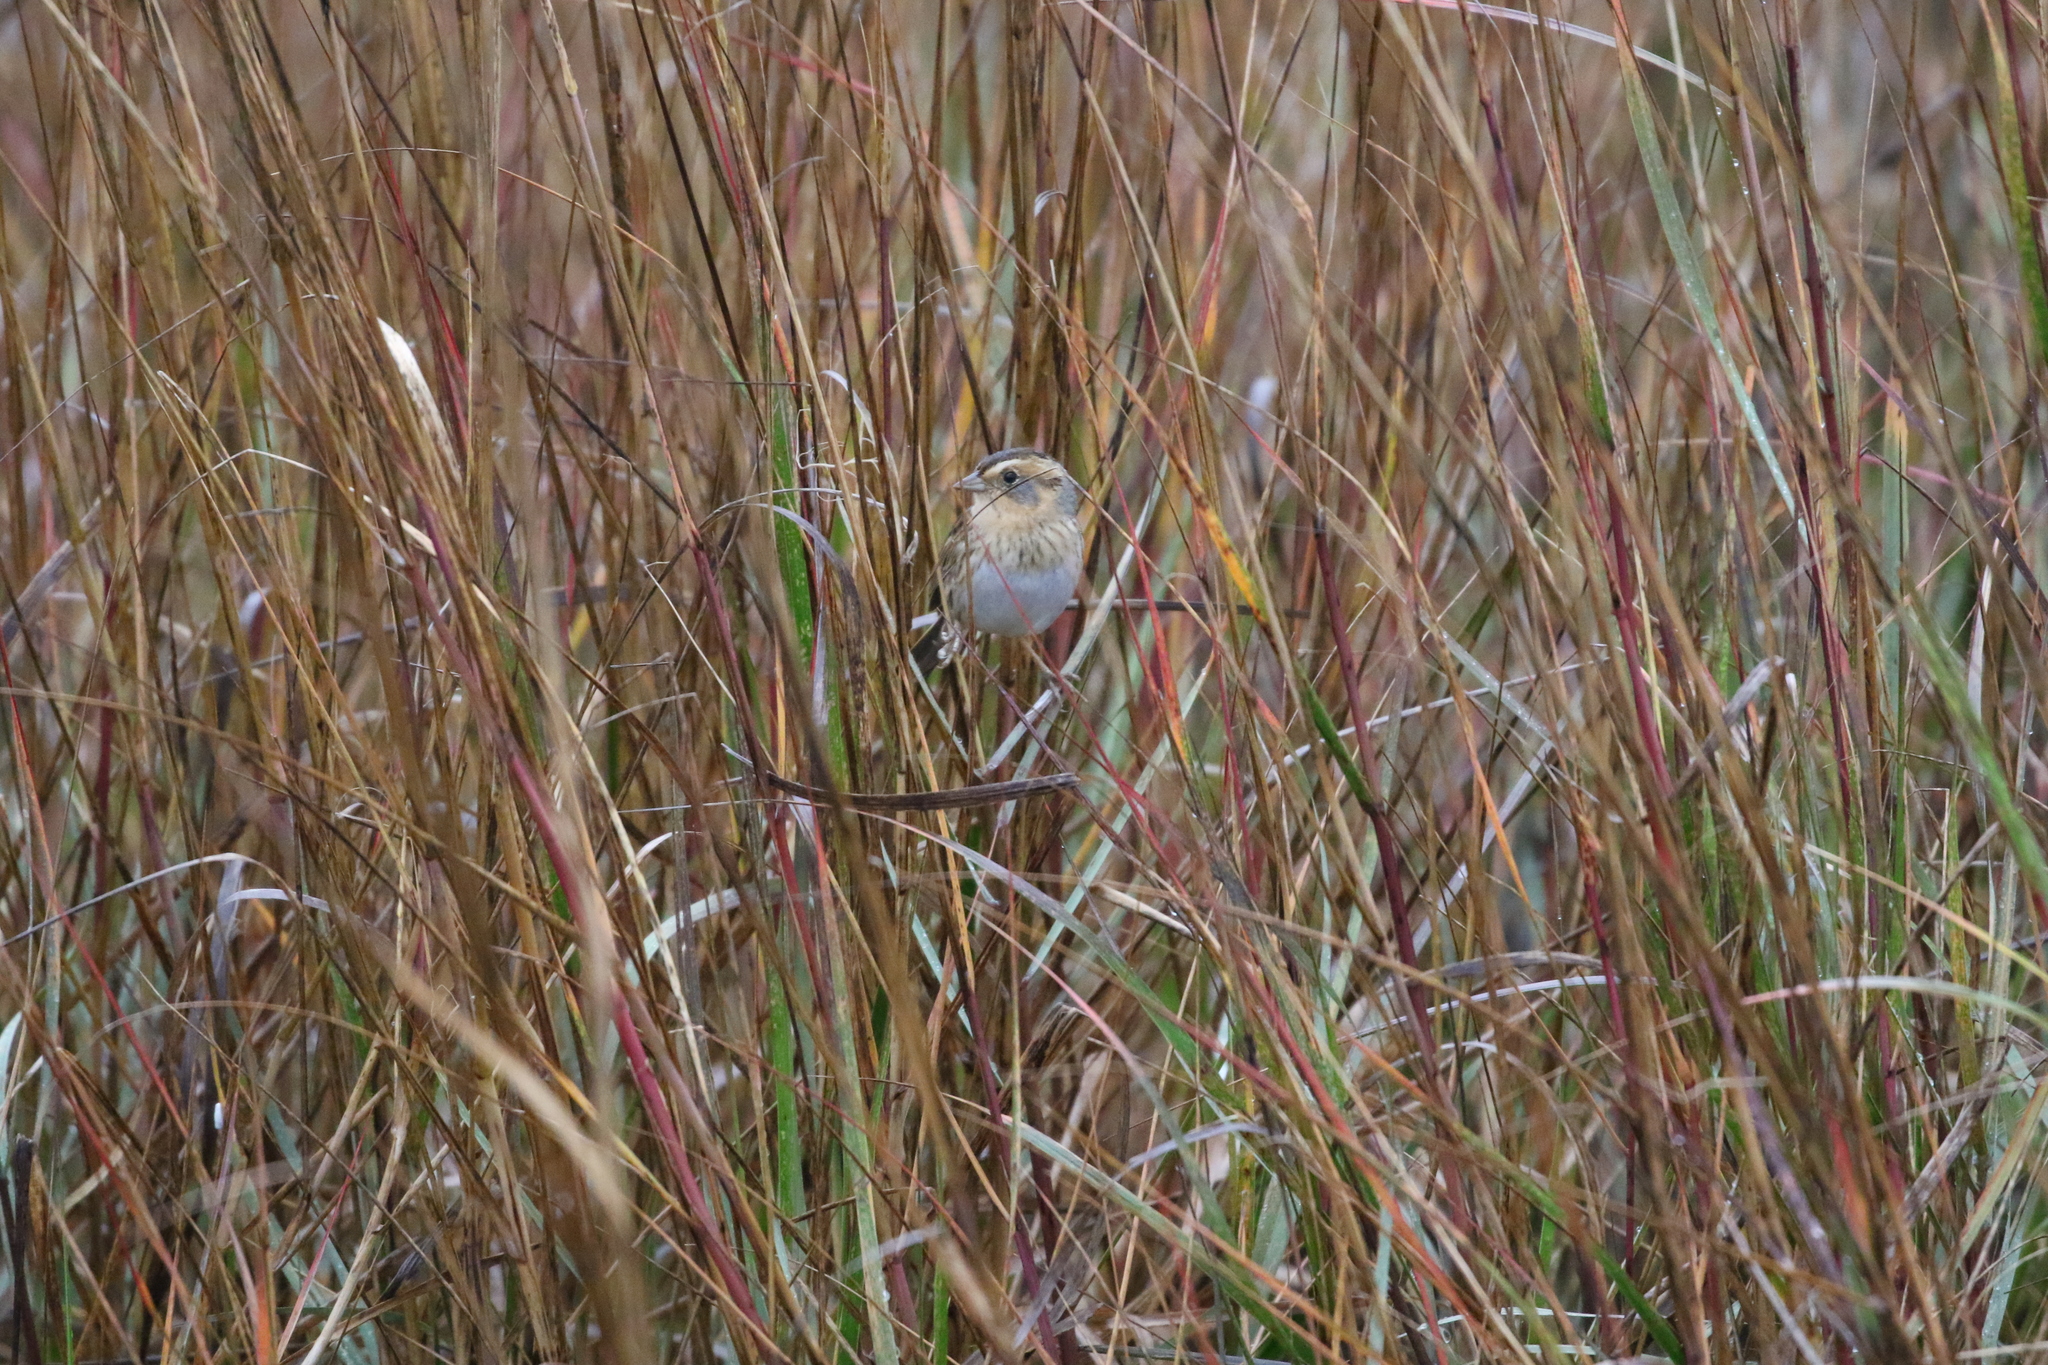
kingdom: Animalia
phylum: Chordata
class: Aves
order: Passeriformes
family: Passerellidae
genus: Ammospiza
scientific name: Ammospiza nelsoni
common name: Nelson's sparrow
